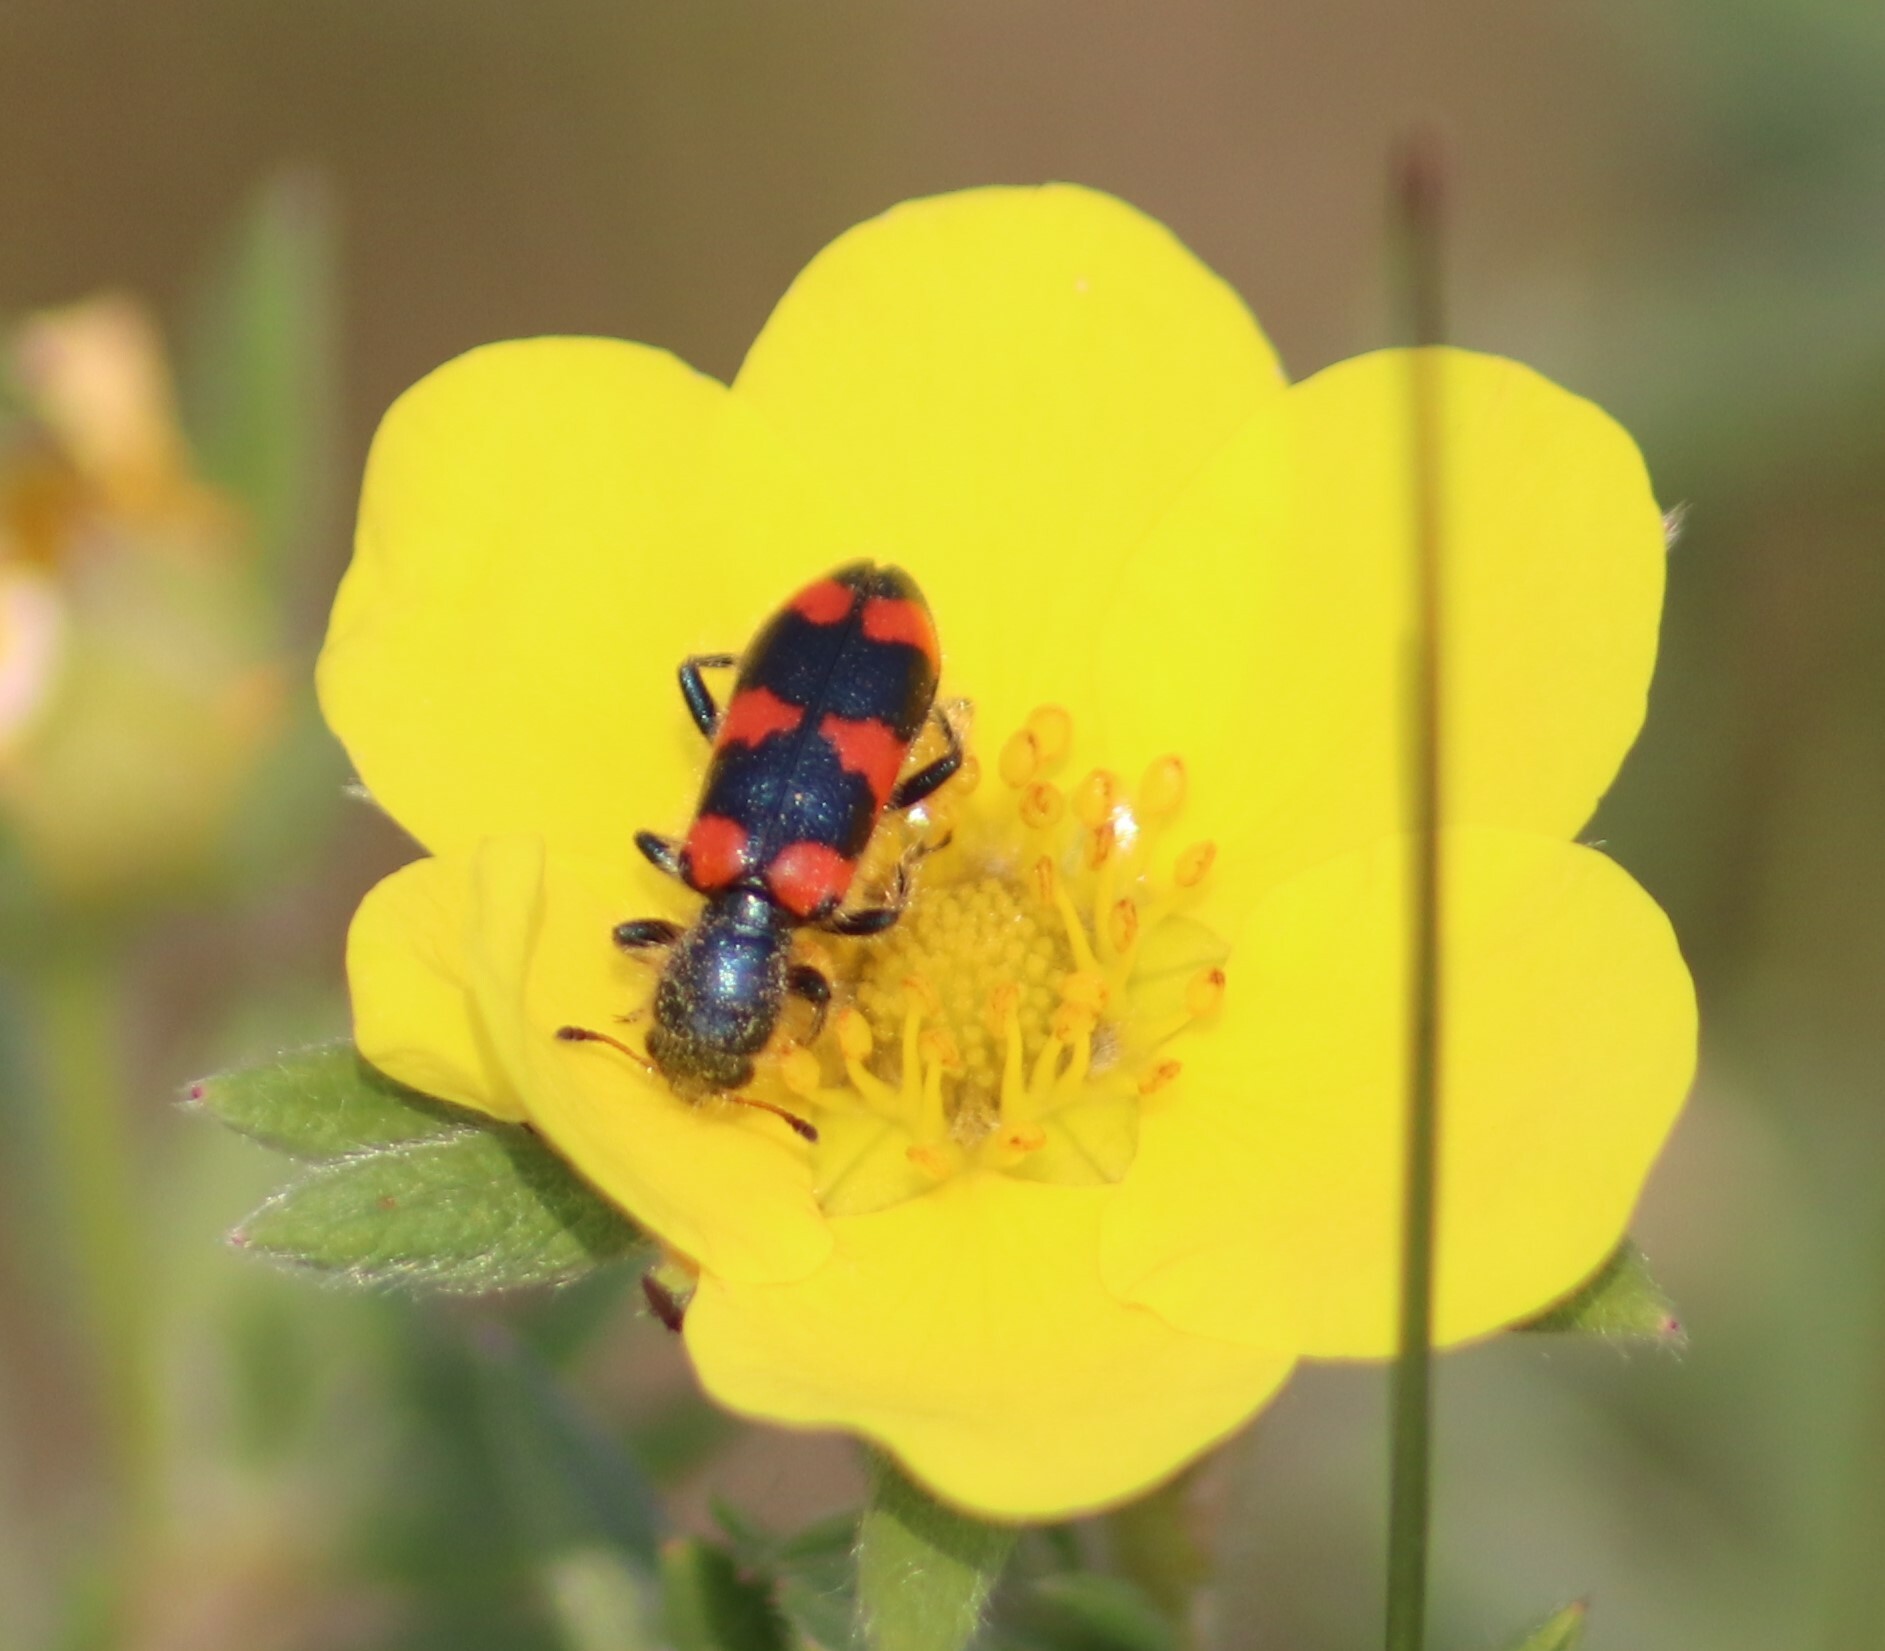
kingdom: Animalia
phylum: Arthropoda
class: Insecta
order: Coleoptera
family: Cleridae
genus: Trichodes
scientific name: Trichodes nutalli
